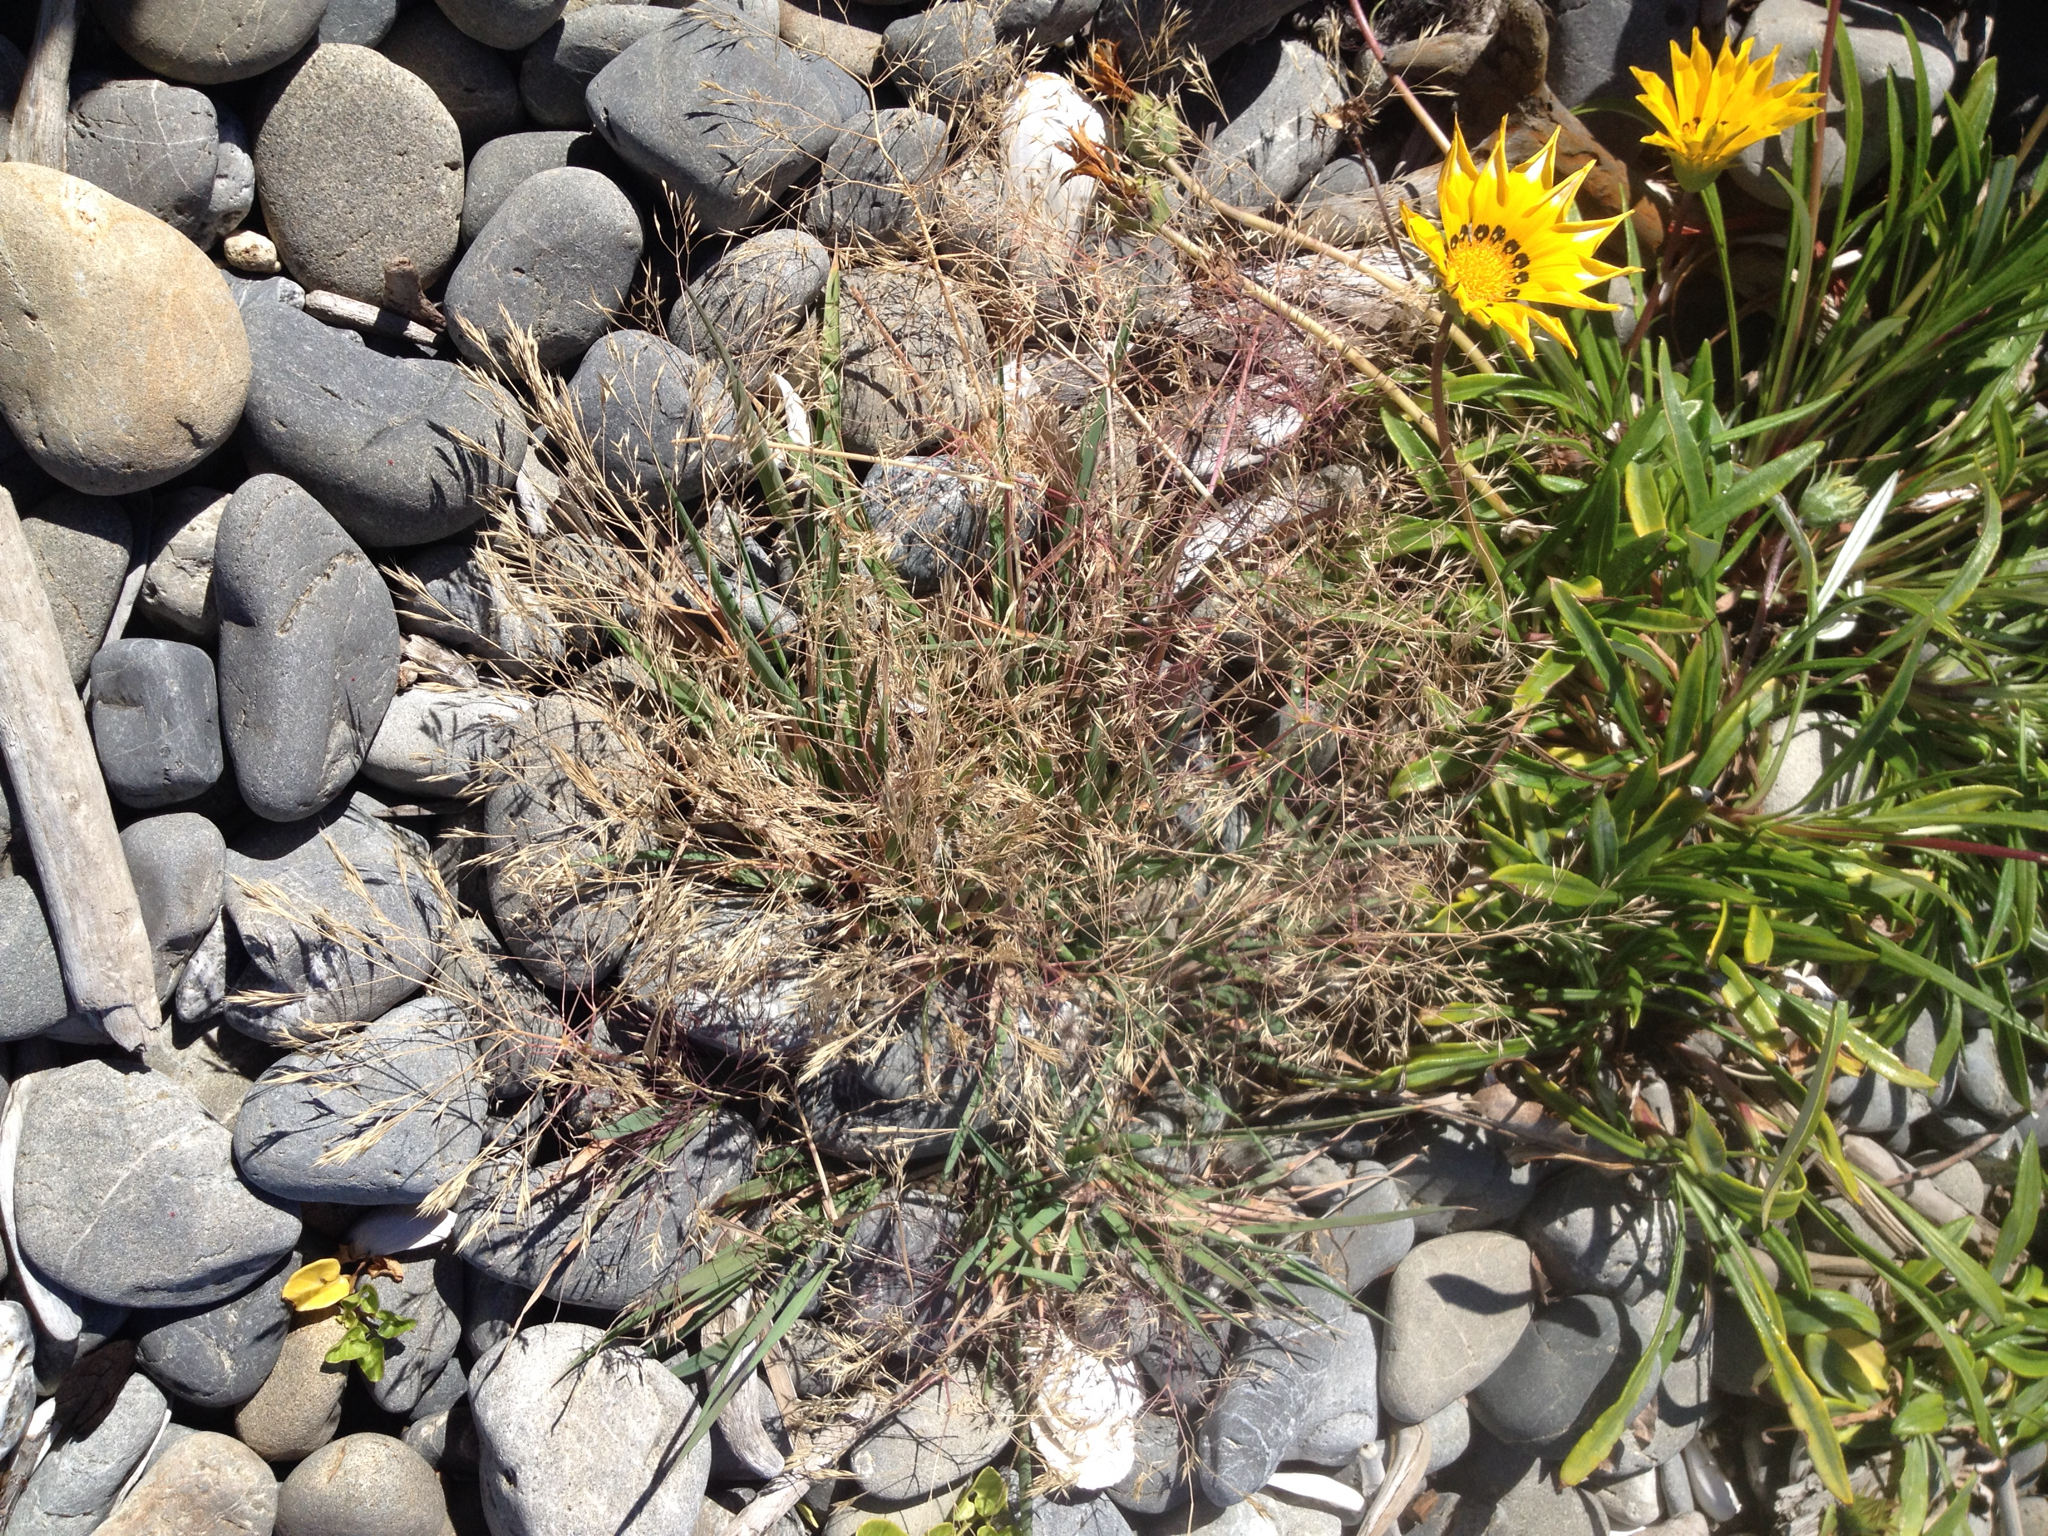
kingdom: Plantae
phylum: Tracheophyta
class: Liliopsida
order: Poales
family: Poaceae
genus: Lachnagrostis
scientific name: Lachnagrostis billardierei
